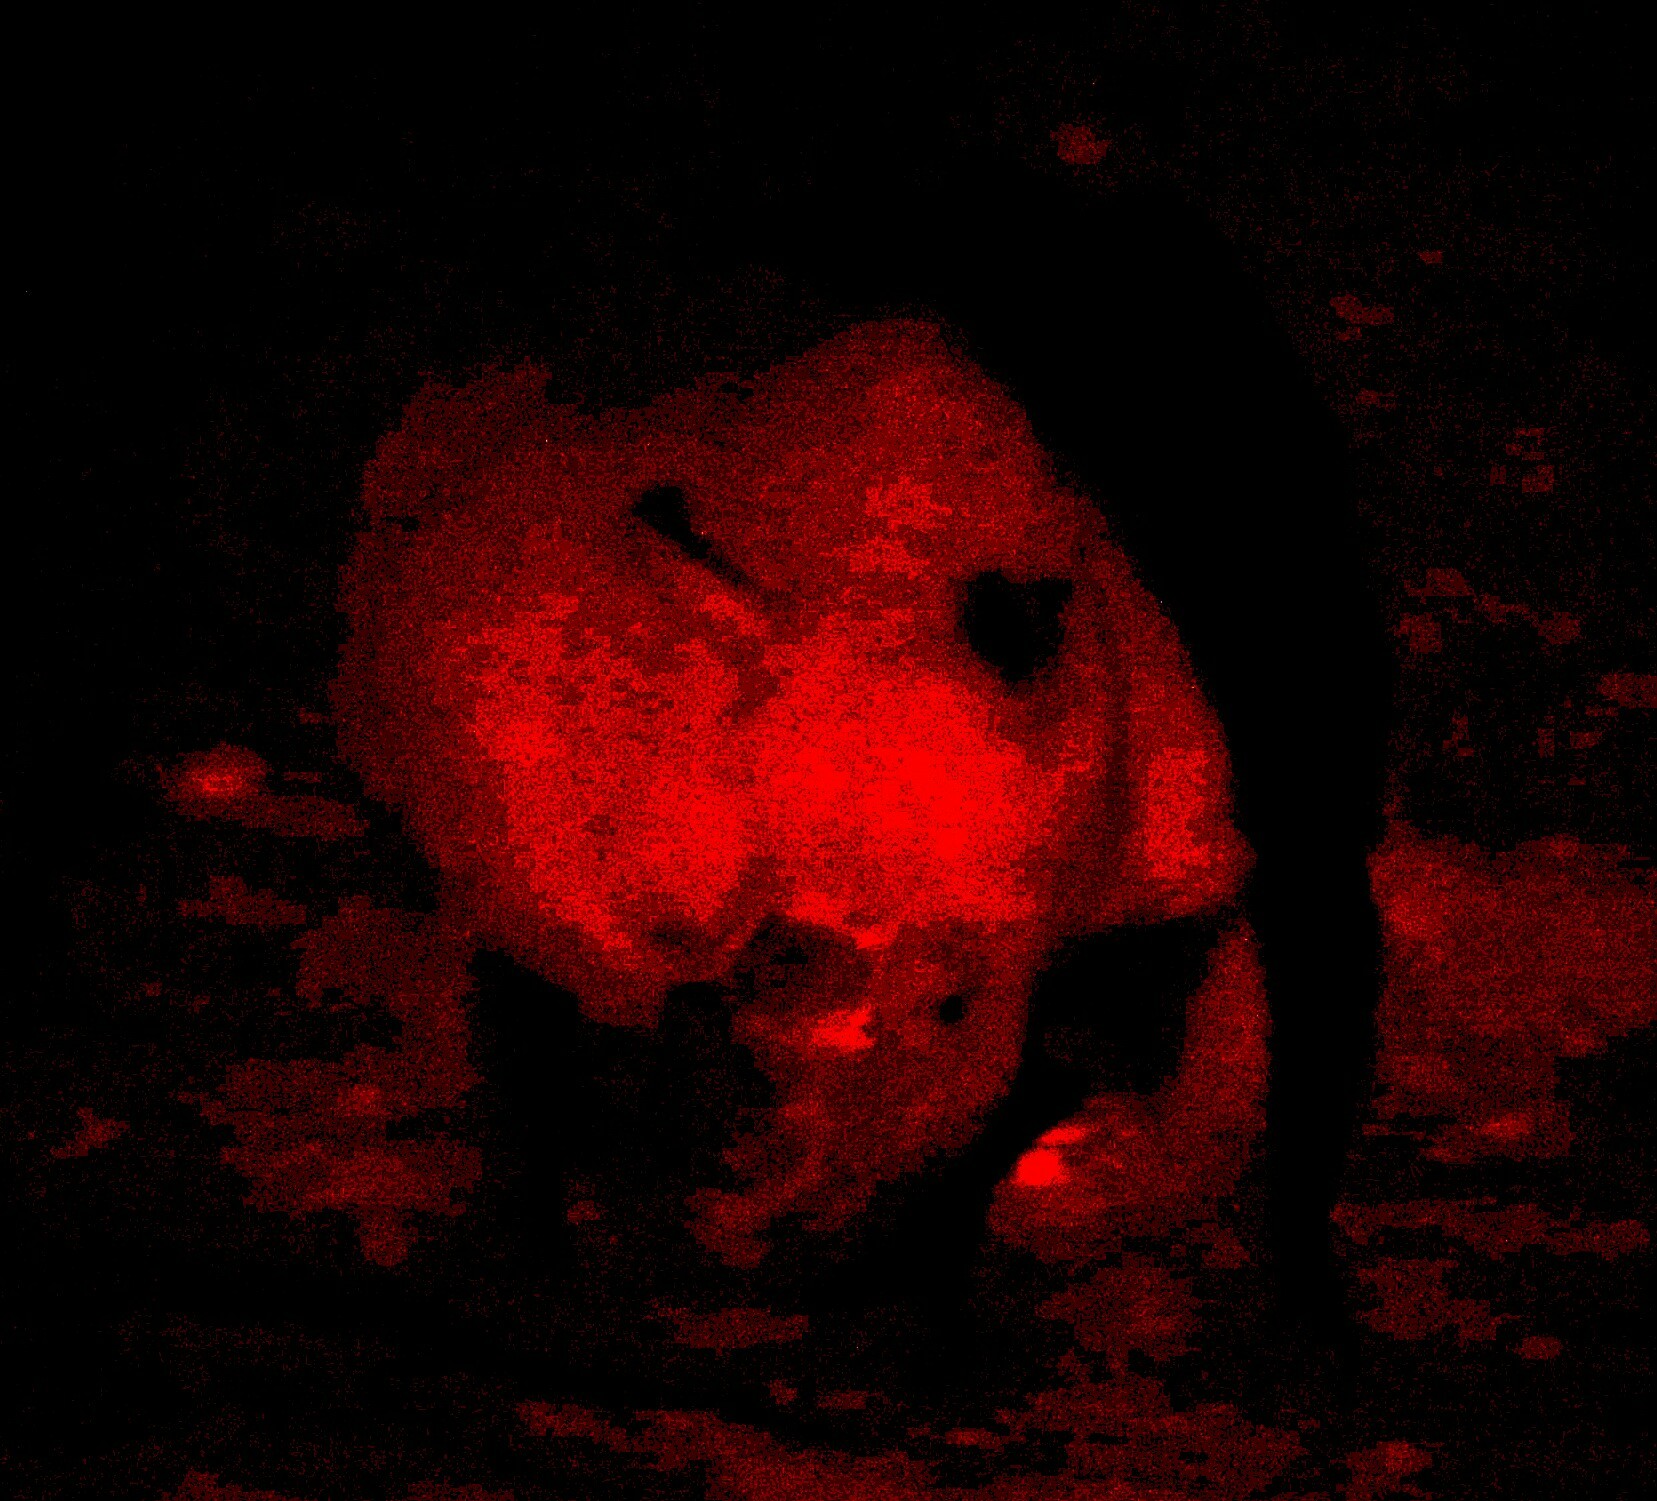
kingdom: Animalia
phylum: Chordata
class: Mammalia
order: Perissodactyla
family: Rhinocerotidae
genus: Ceratotherium
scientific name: Ceratotherium simum
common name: White rhinoceros
